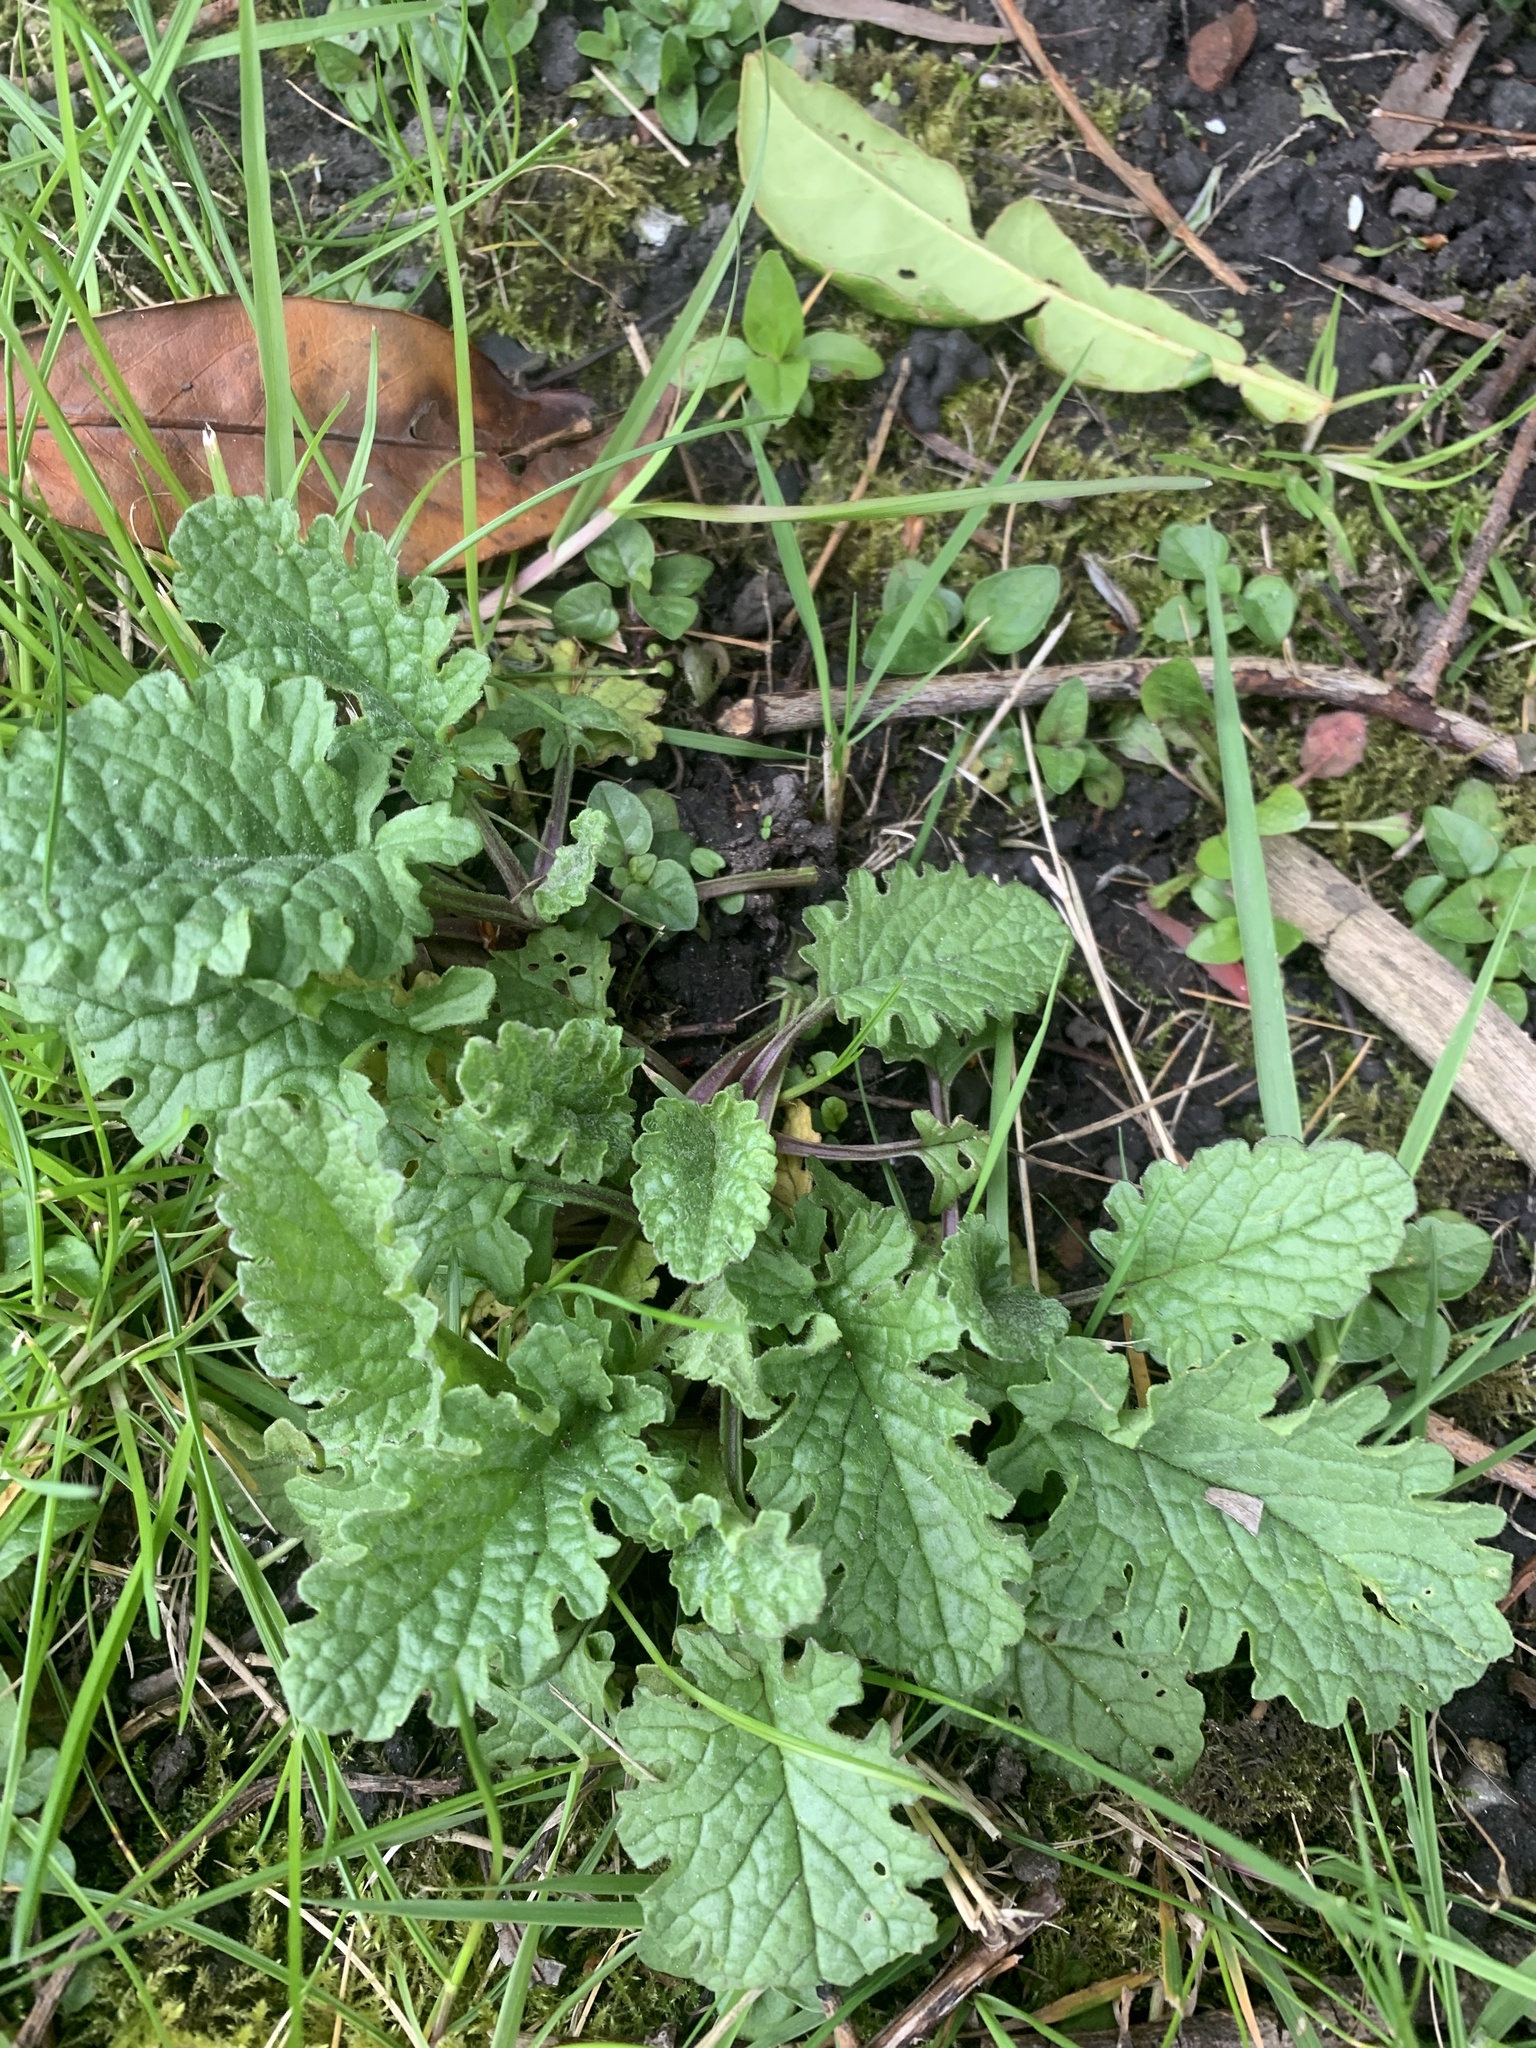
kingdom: Plantae
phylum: Tracheophyta
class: Magnoliopsida
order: Asterales
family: Asteraceae
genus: Jacobaea
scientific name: Jacobaea vulgaris
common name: Stinking willie
